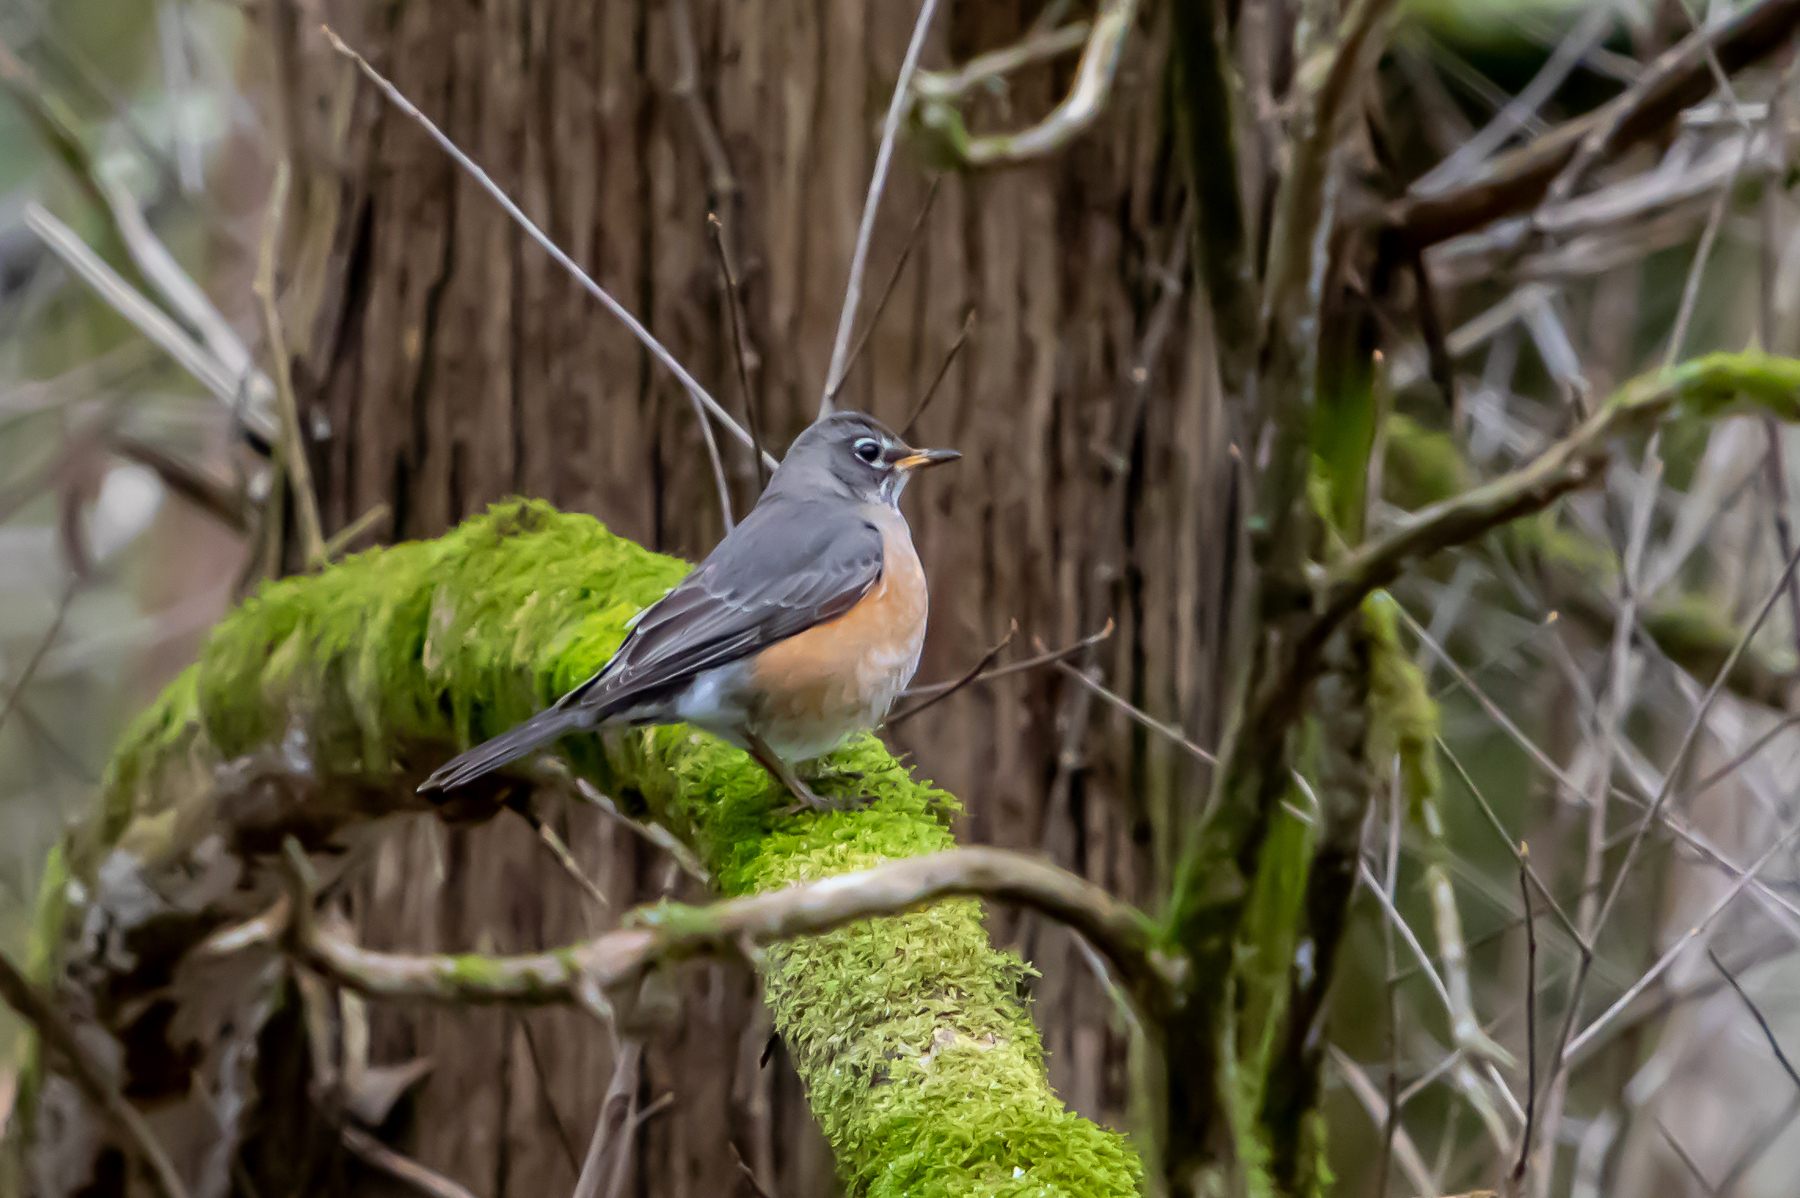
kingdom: Animalia
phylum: Chordata
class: Aves
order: Passeriformes
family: Turdidae
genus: Turdus
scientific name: Turdus migratorius
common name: American robin
